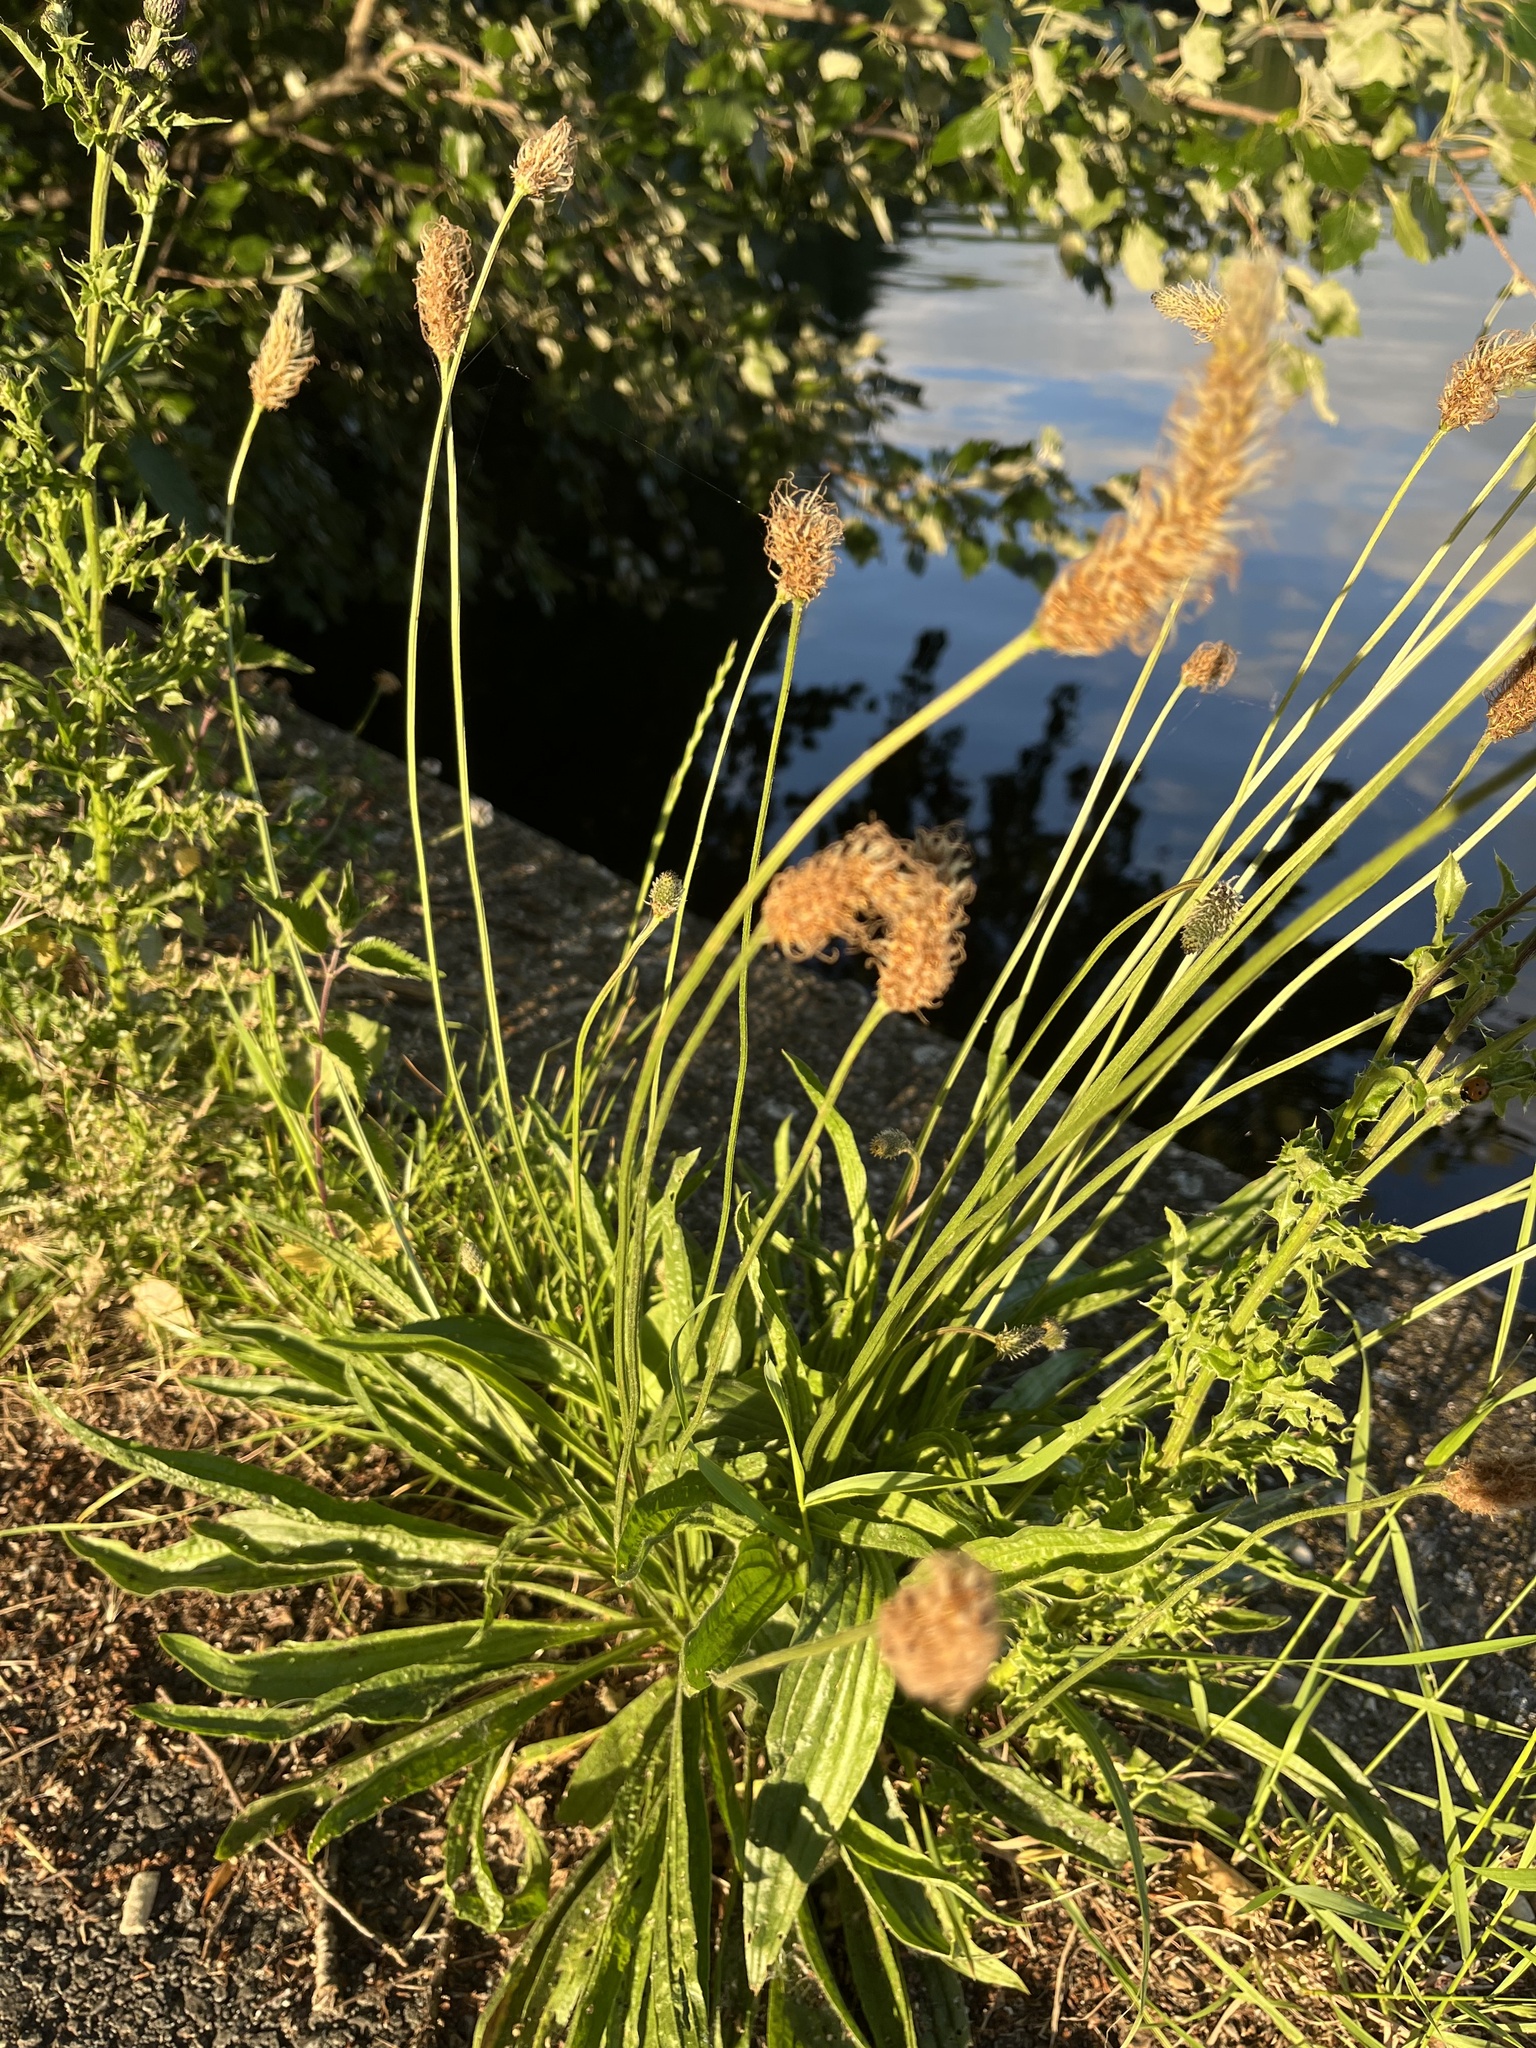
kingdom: Plantae
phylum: Tracheophyta
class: Magnoliopsida
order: Lamiales
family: Plantaginaceae
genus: Plantago
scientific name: Plantago lanceolata
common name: Ribwort plantain
